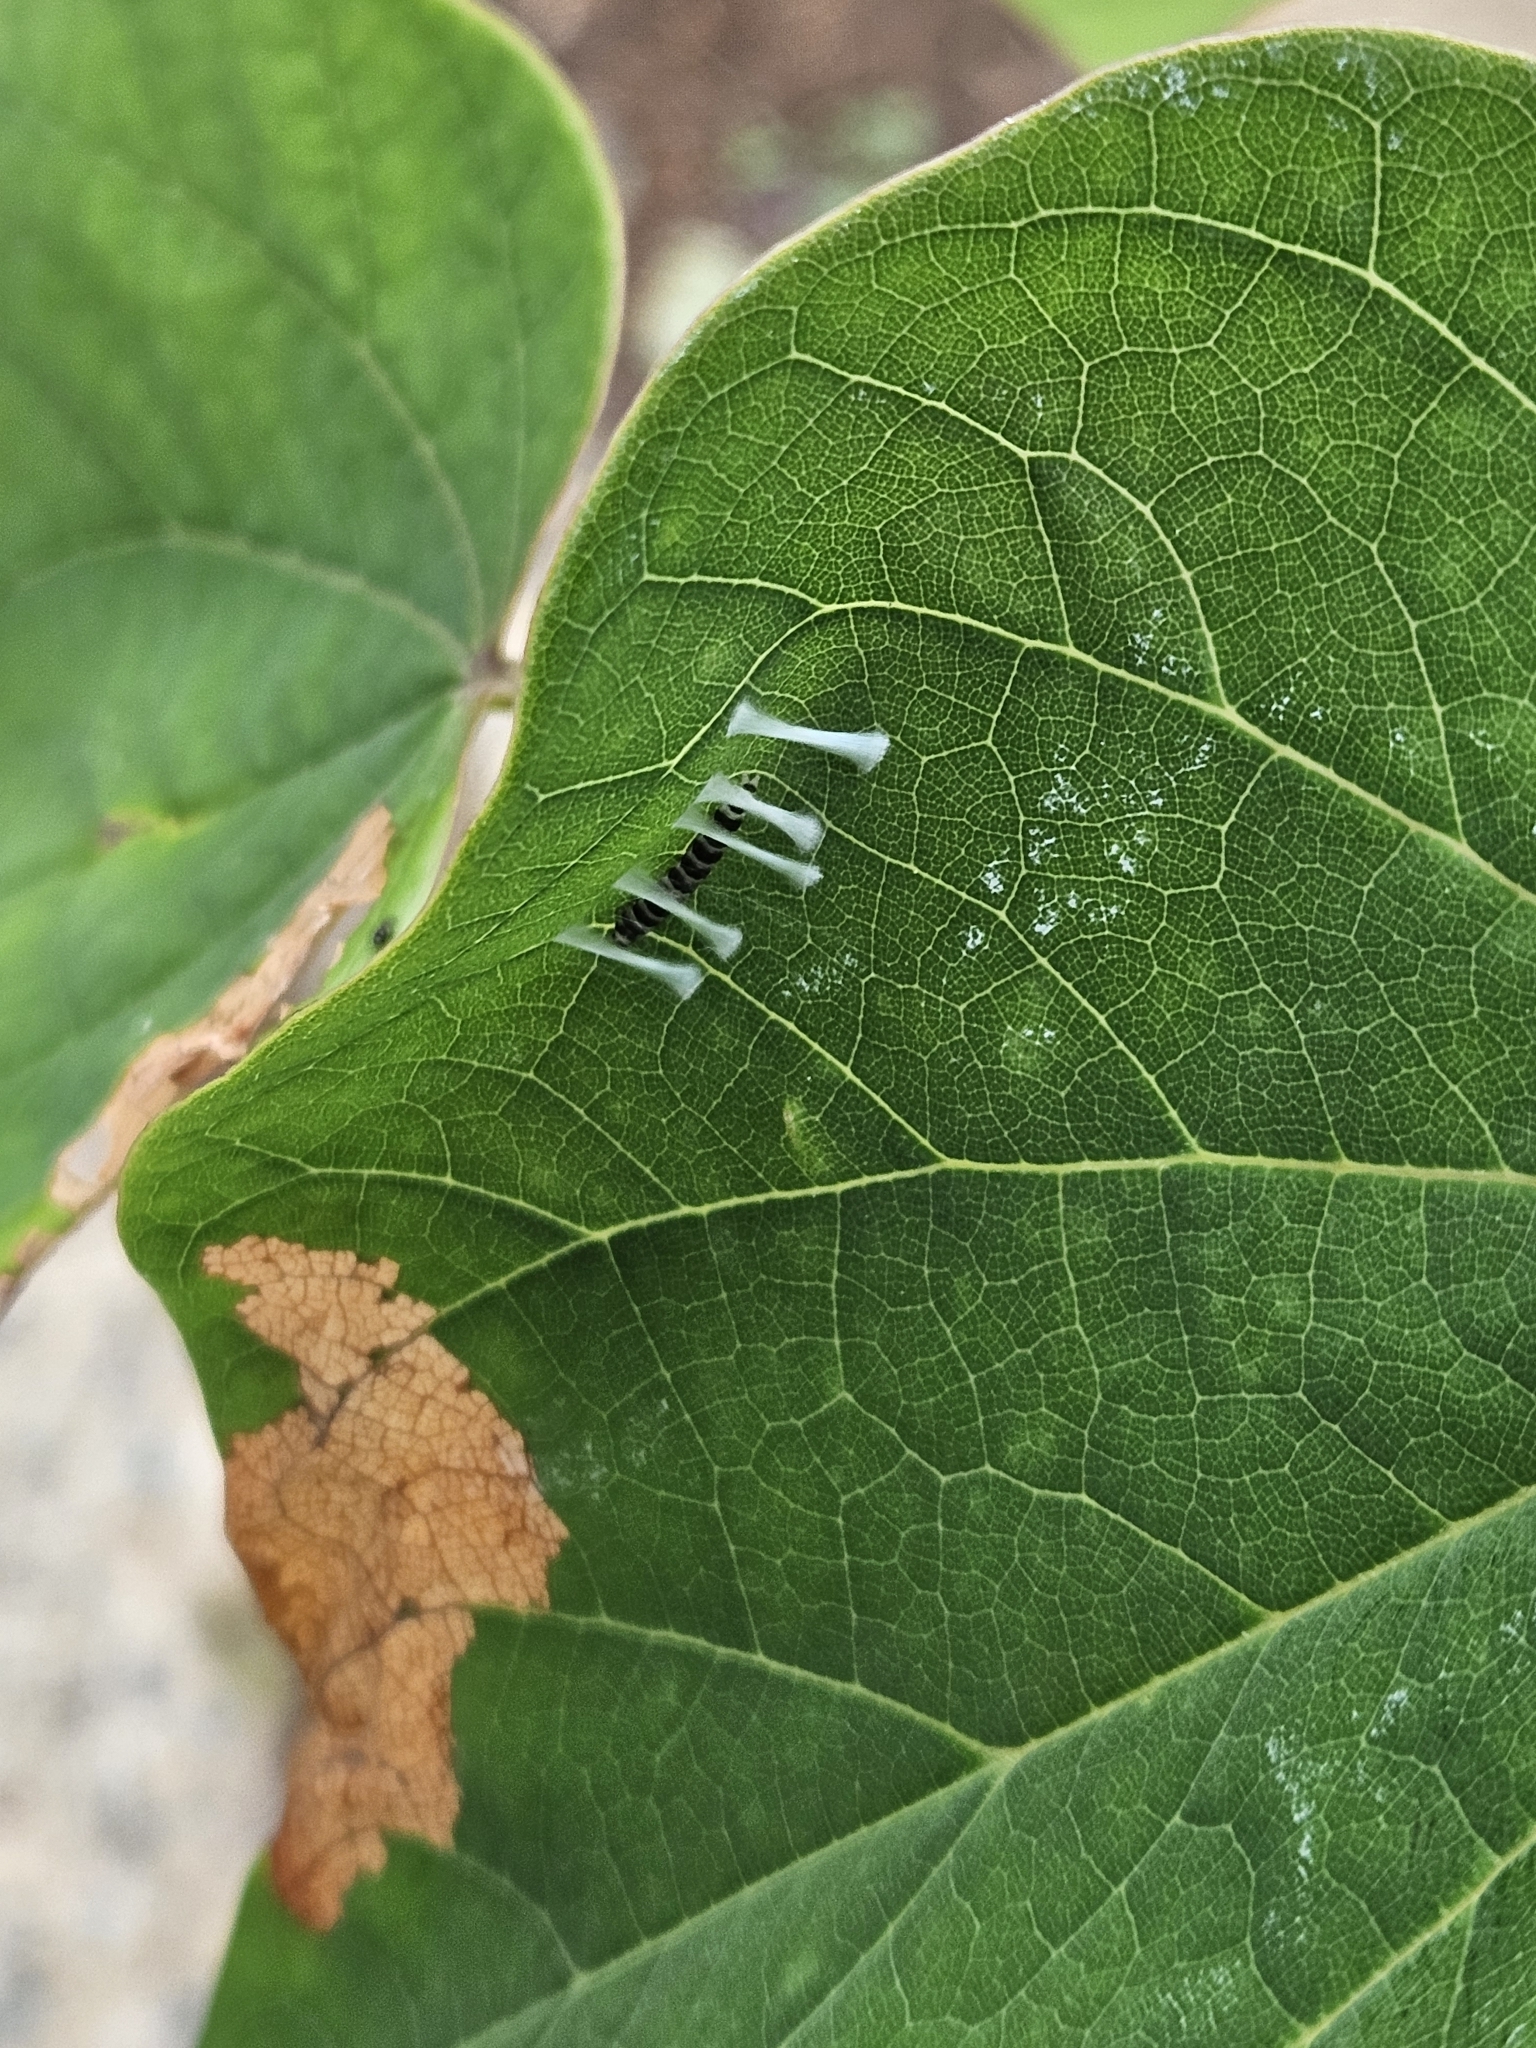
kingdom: Animalia
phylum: Arthropoda
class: Insecta
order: Lepidoptera
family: Gelechiidae
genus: Fascista
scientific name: Fascista cercerisella
